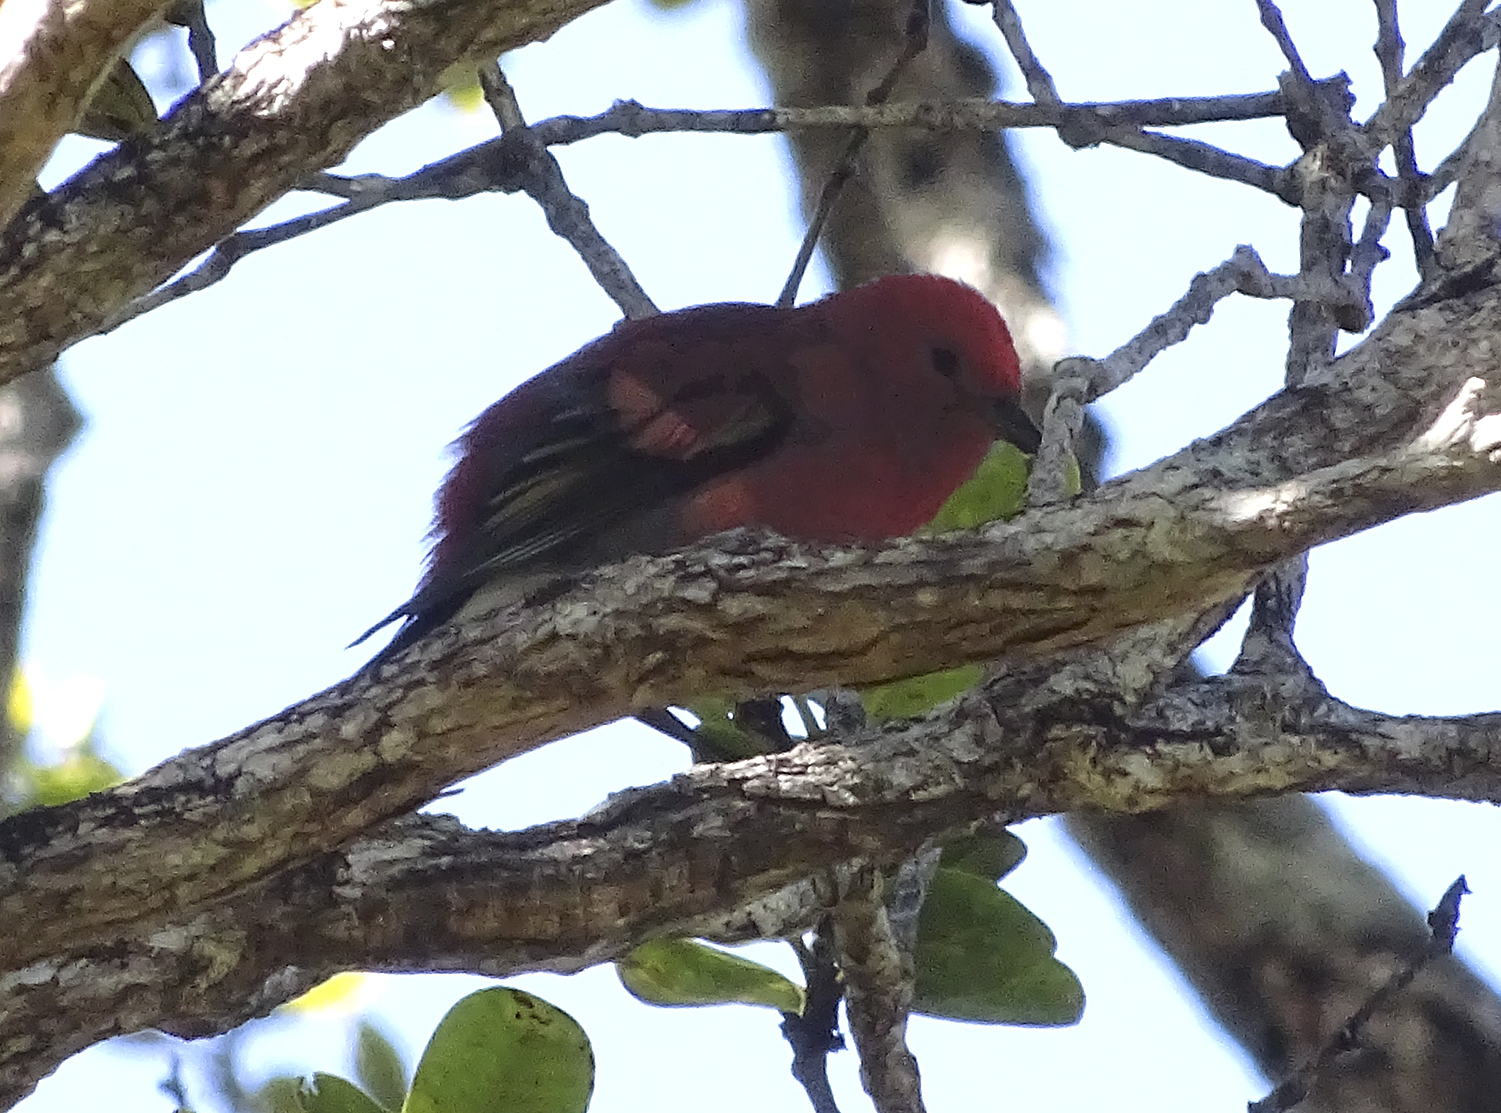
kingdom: Animalia
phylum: Chordata
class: Aves
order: Passeriformes
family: Fringillidae
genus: Himatione
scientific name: Himatione sanguinea
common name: Apapane
